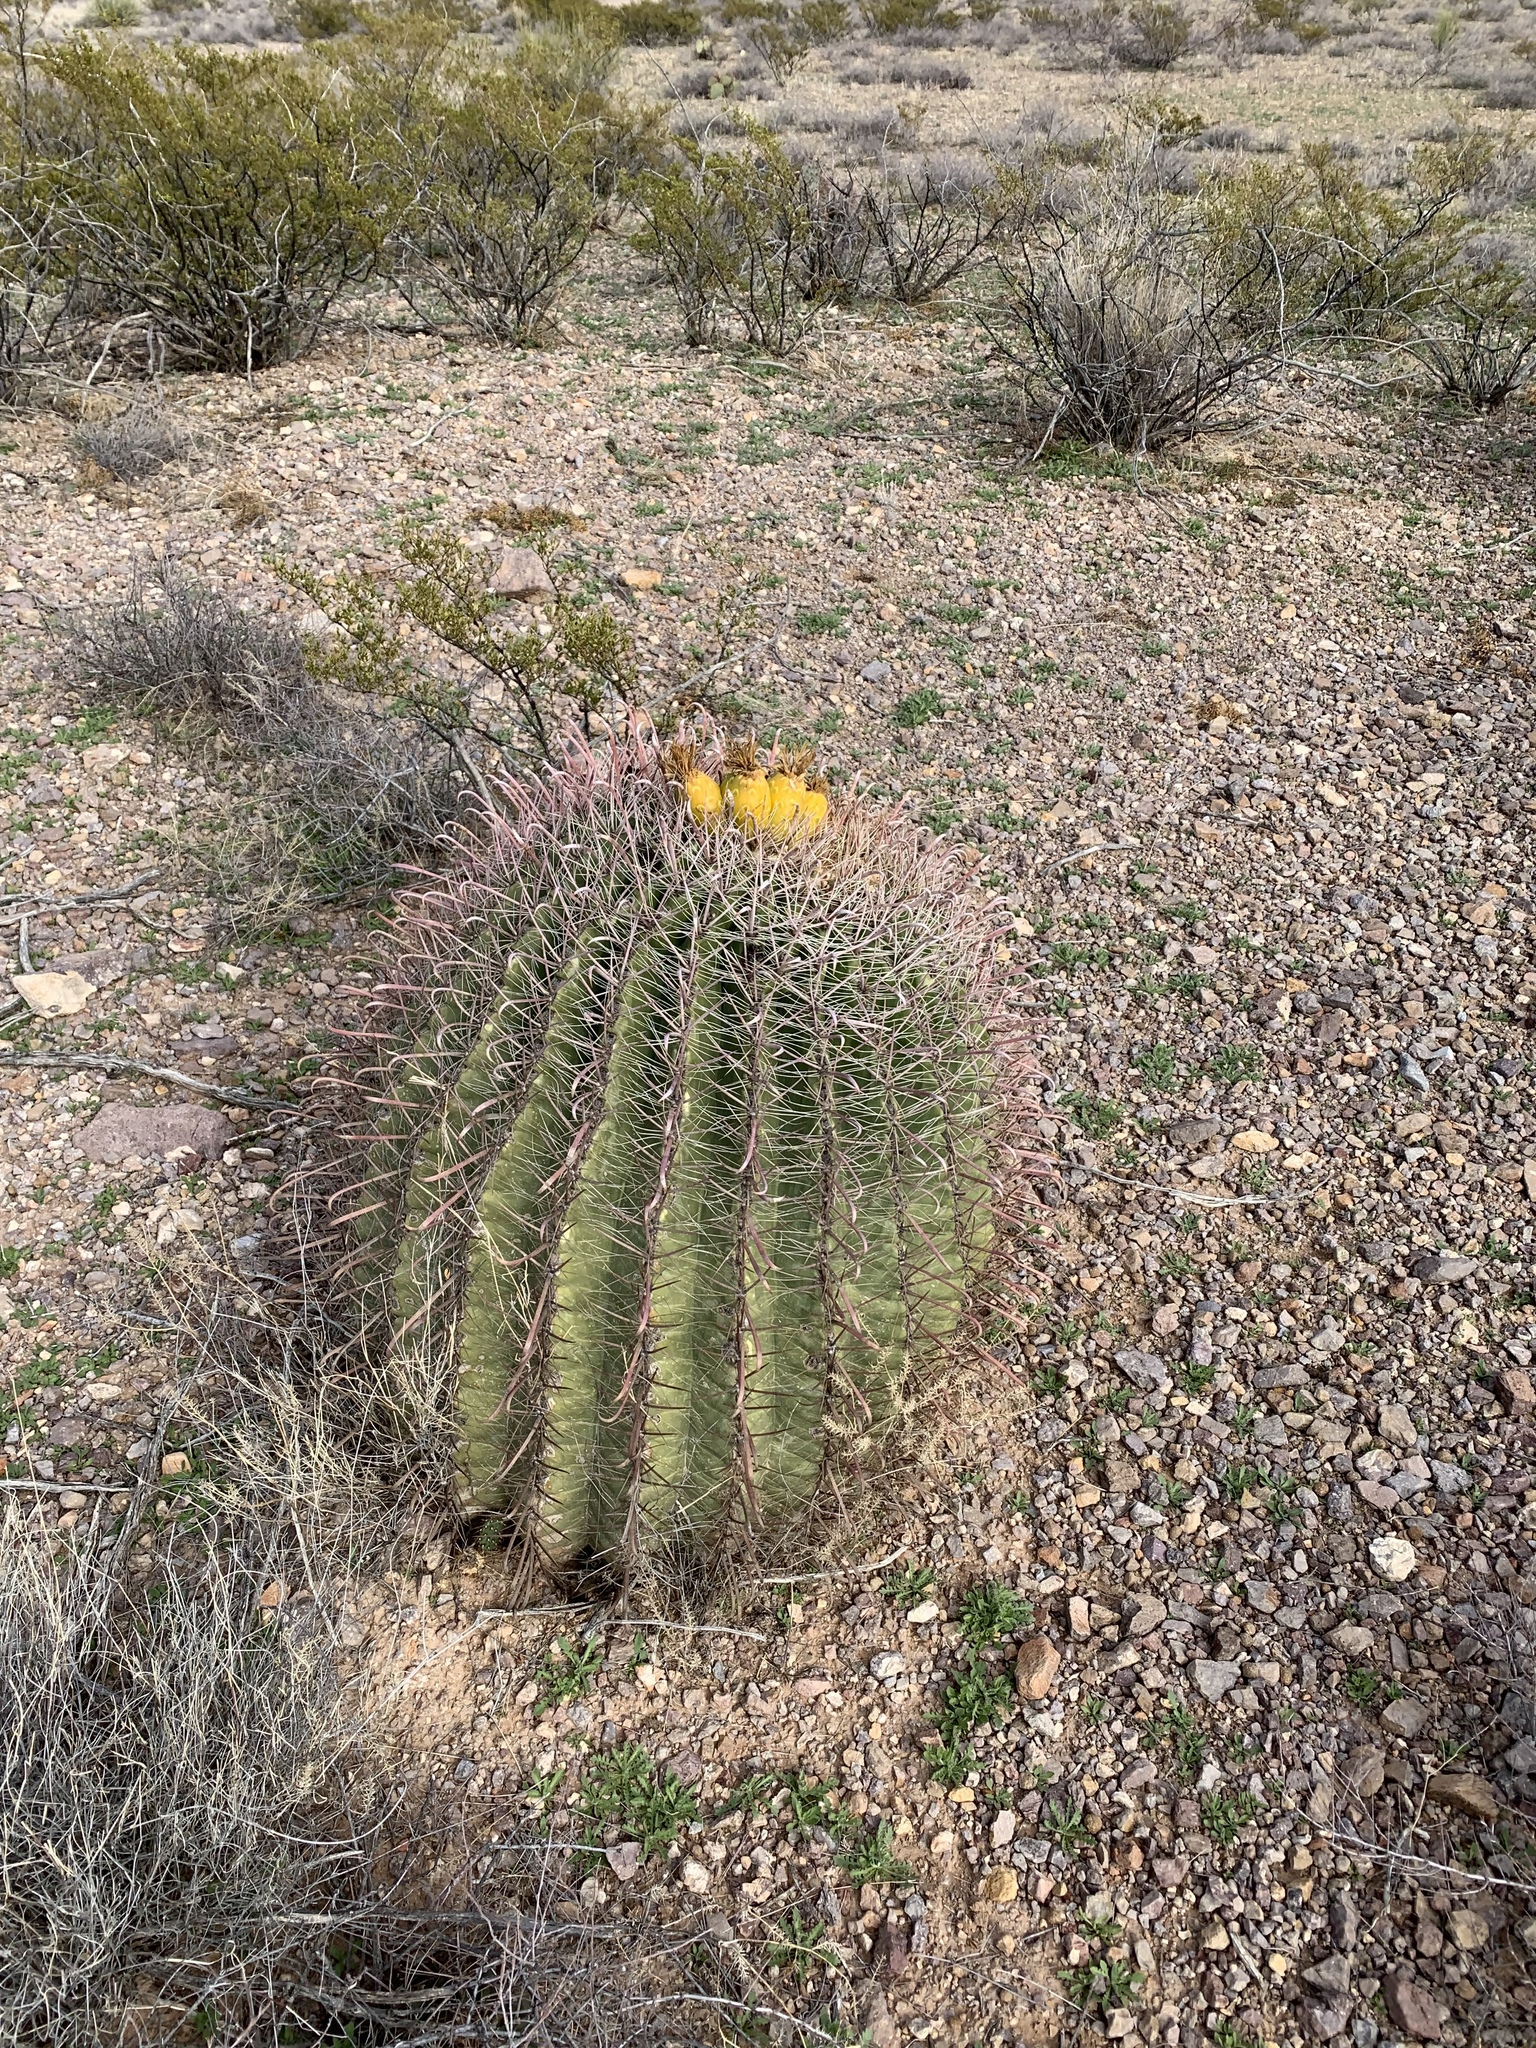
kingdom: Plantae
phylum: Tracheophyta
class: Magnoliopsida
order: Caryophyllales
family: Cactaceae
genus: Ferocactus
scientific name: Ferocactus wislizeni
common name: Candy barrel cactus
